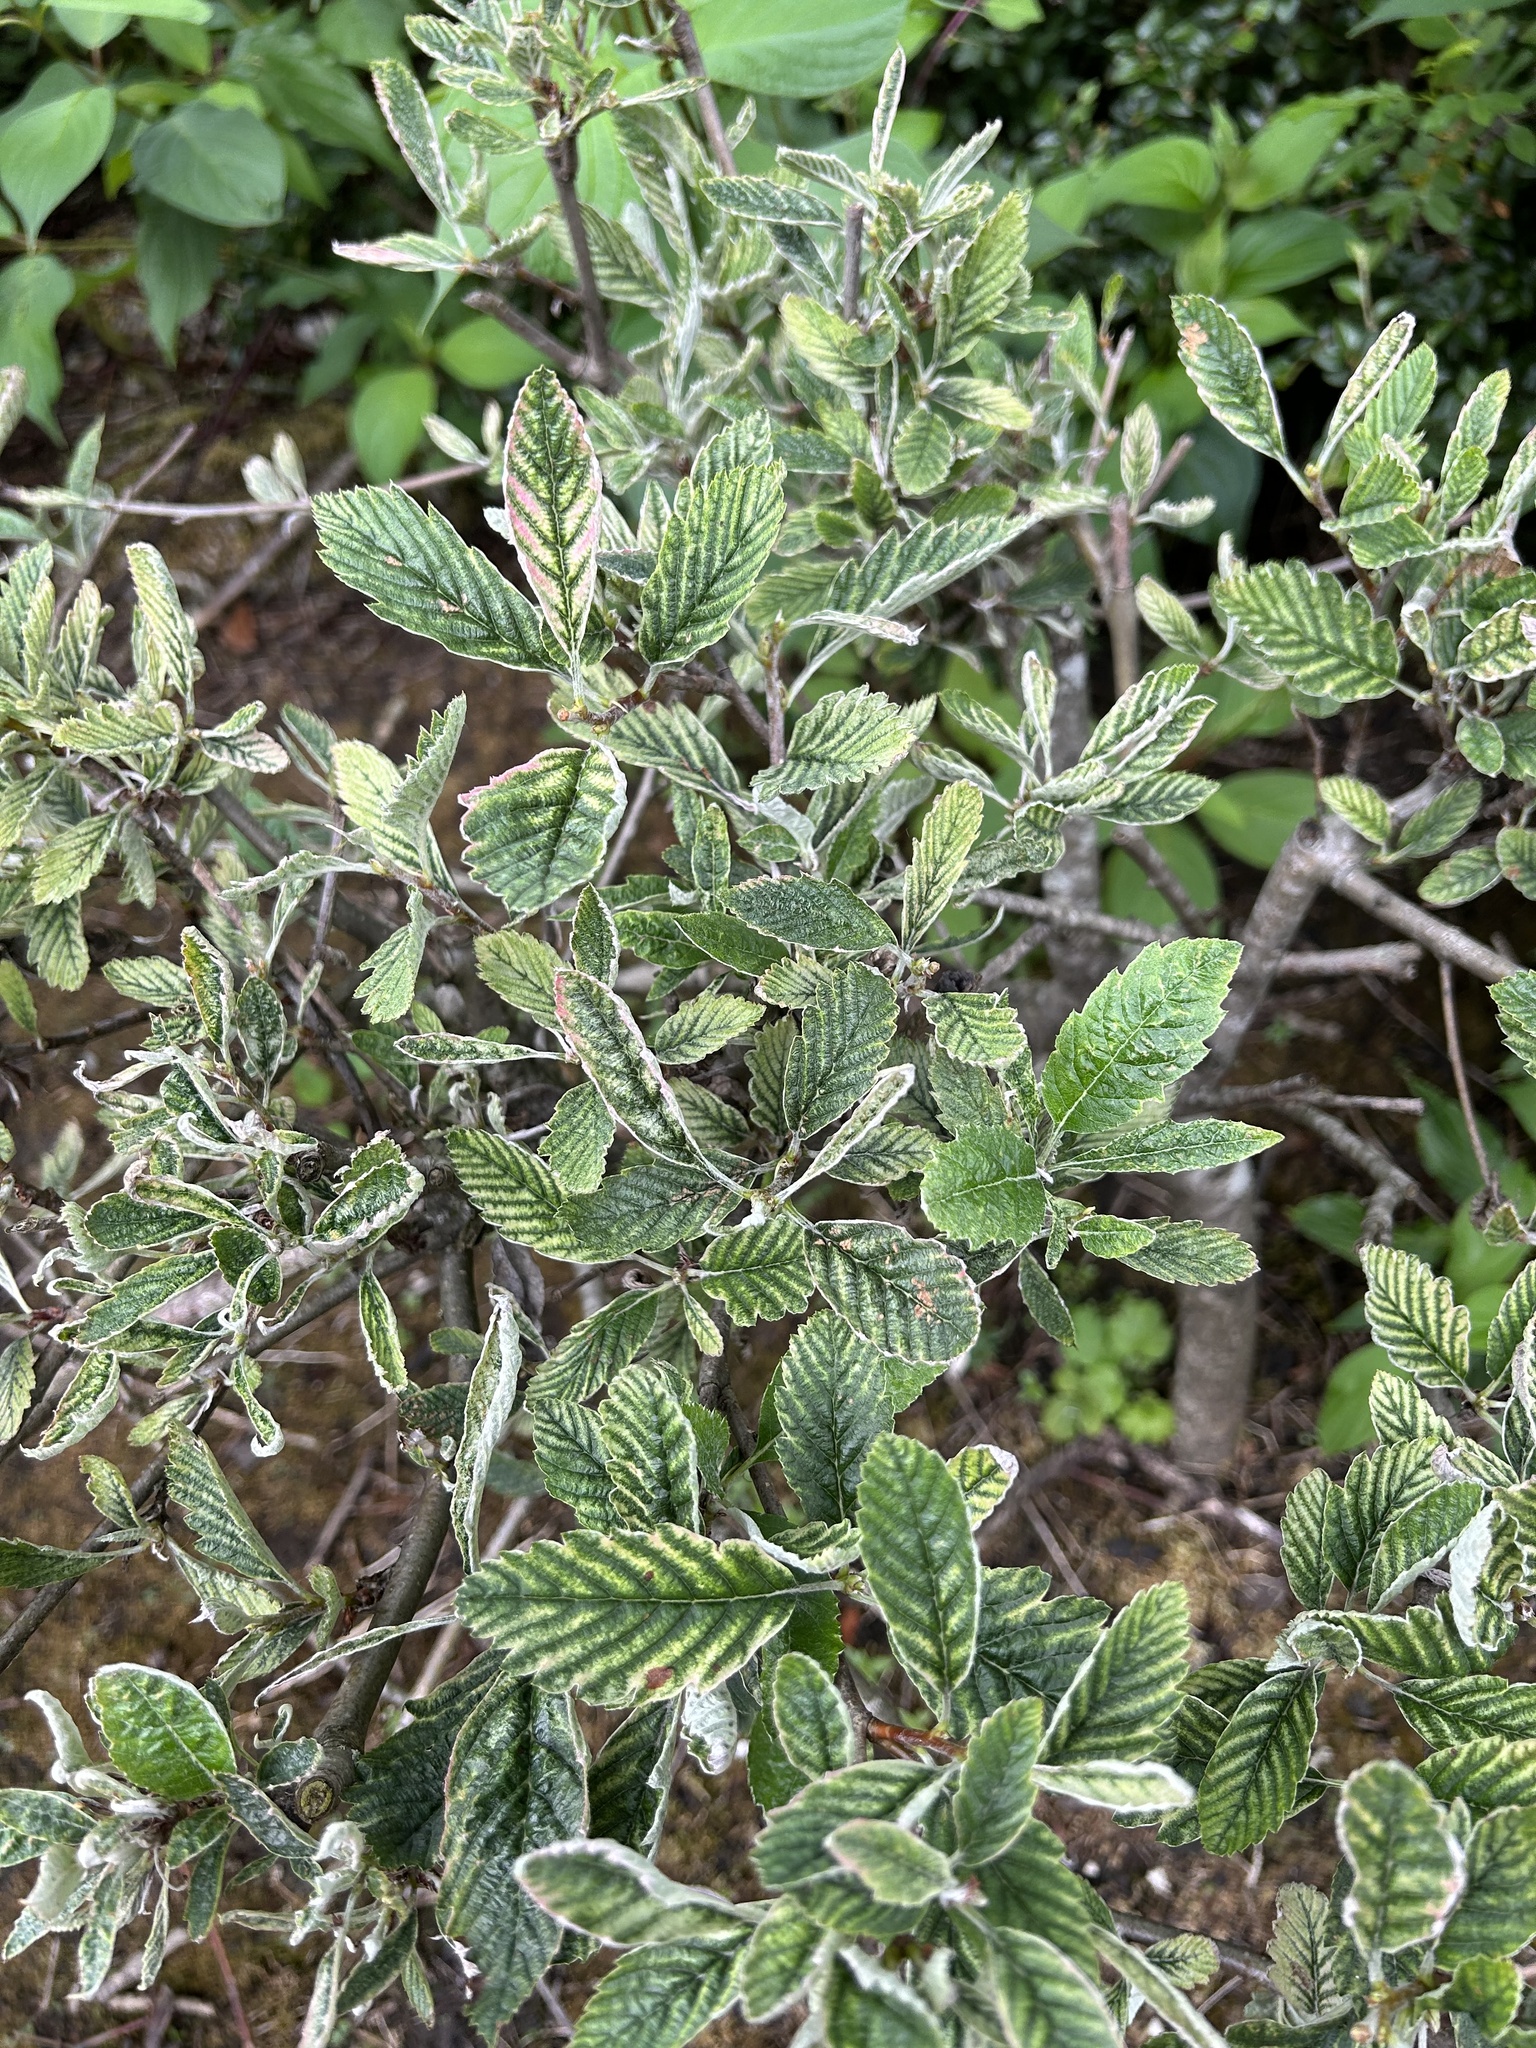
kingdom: Plantae
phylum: Tracheophyta
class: Magnoliopsida
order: Rosales
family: Rosaceae
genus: Aria
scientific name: Aria edulis
